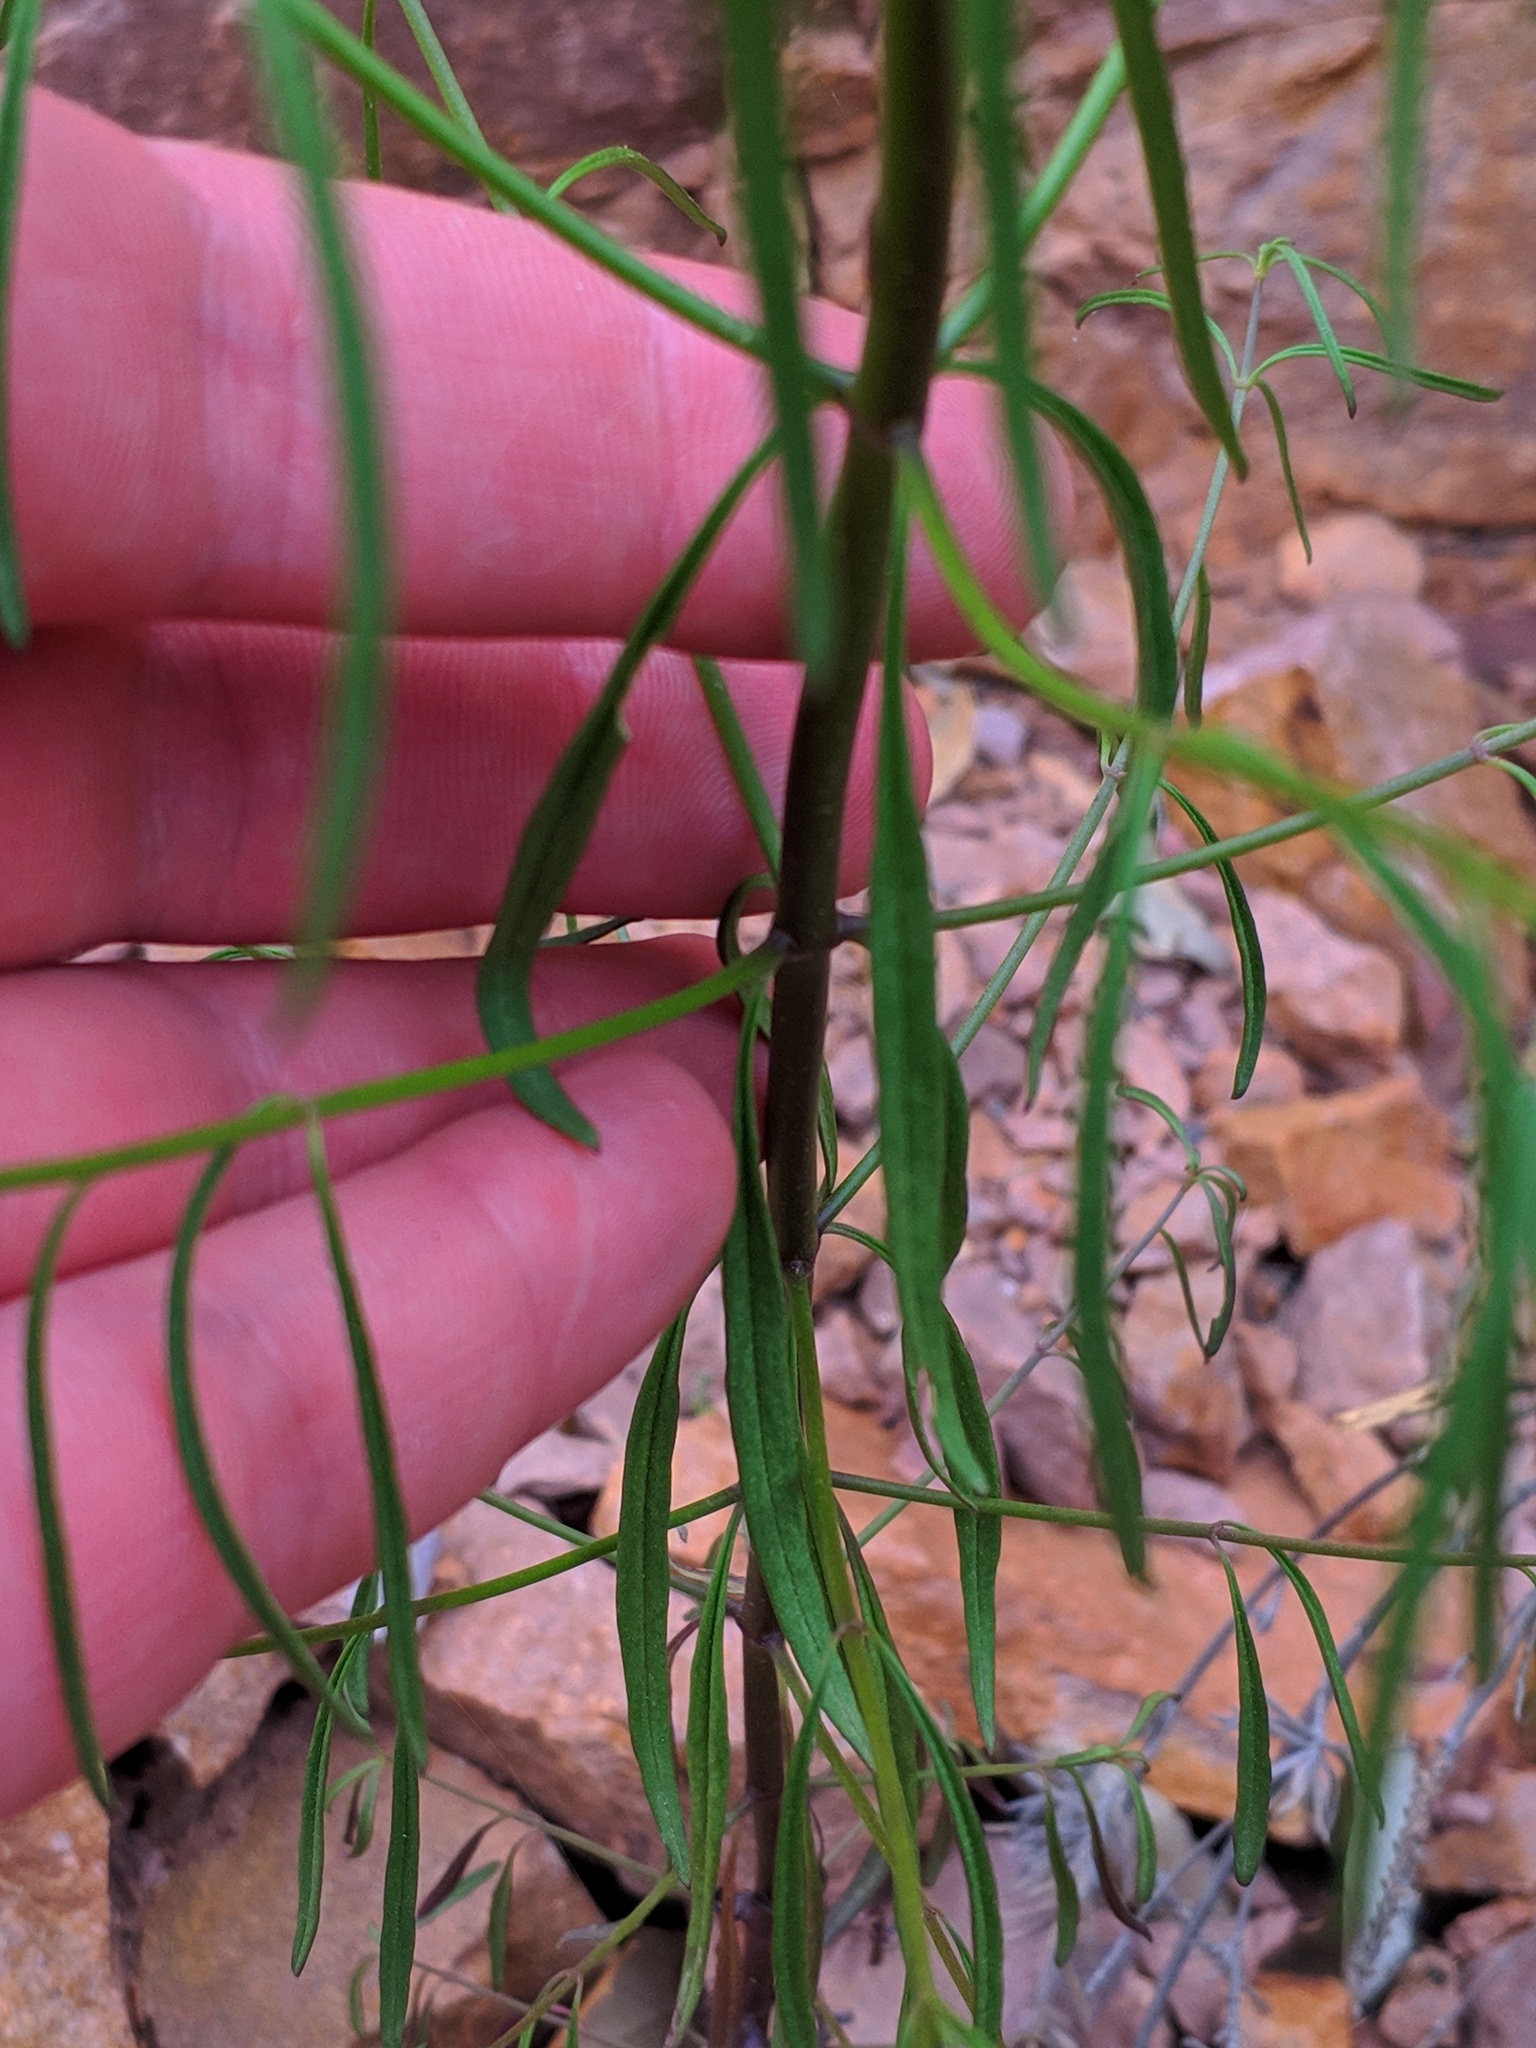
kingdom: Plantae
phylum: Tracheophyta
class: Magnoliopsida
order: Lamiales
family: Plantaginaceae
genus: Antirrhinum
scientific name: Antirrhinum litigiosum
